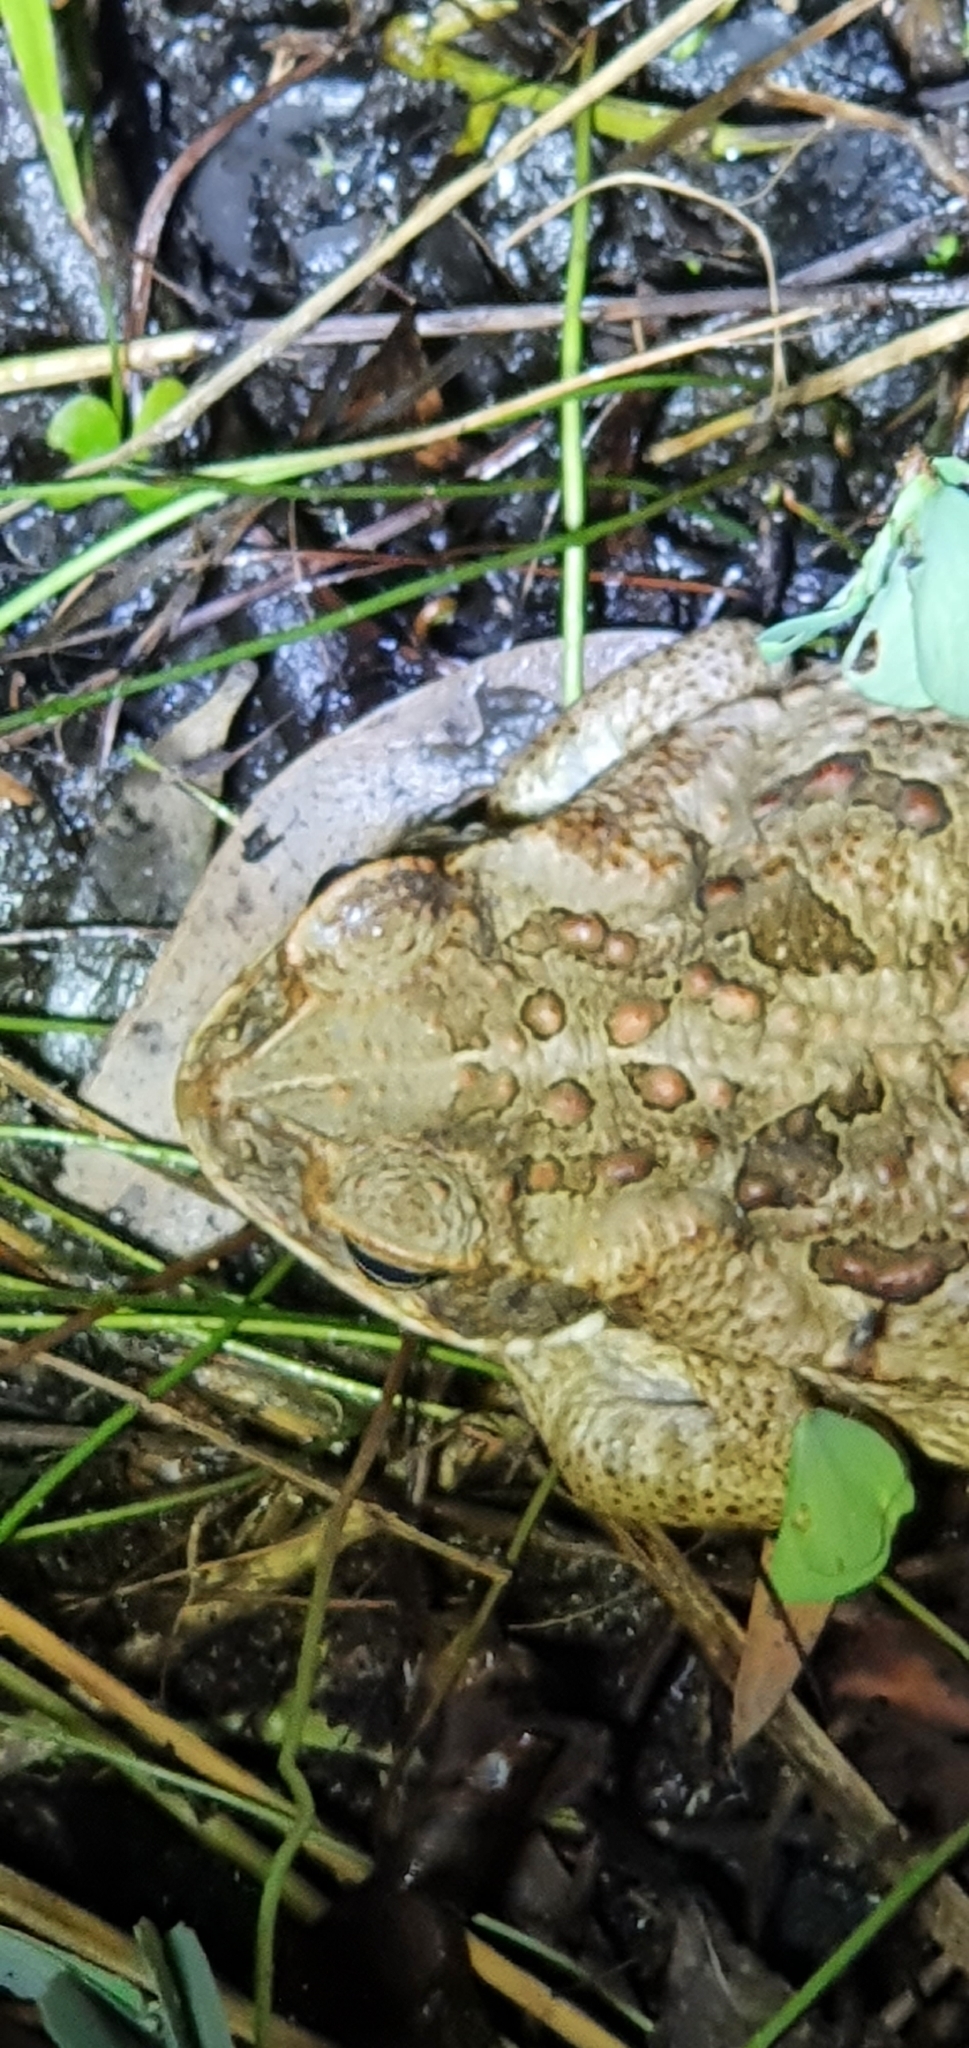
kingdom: Animalia
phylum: Chordata
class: Amphibia
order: Anura
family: Bufonidae
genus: Rhinella
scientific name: Rhinella marina
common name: Cane toad
